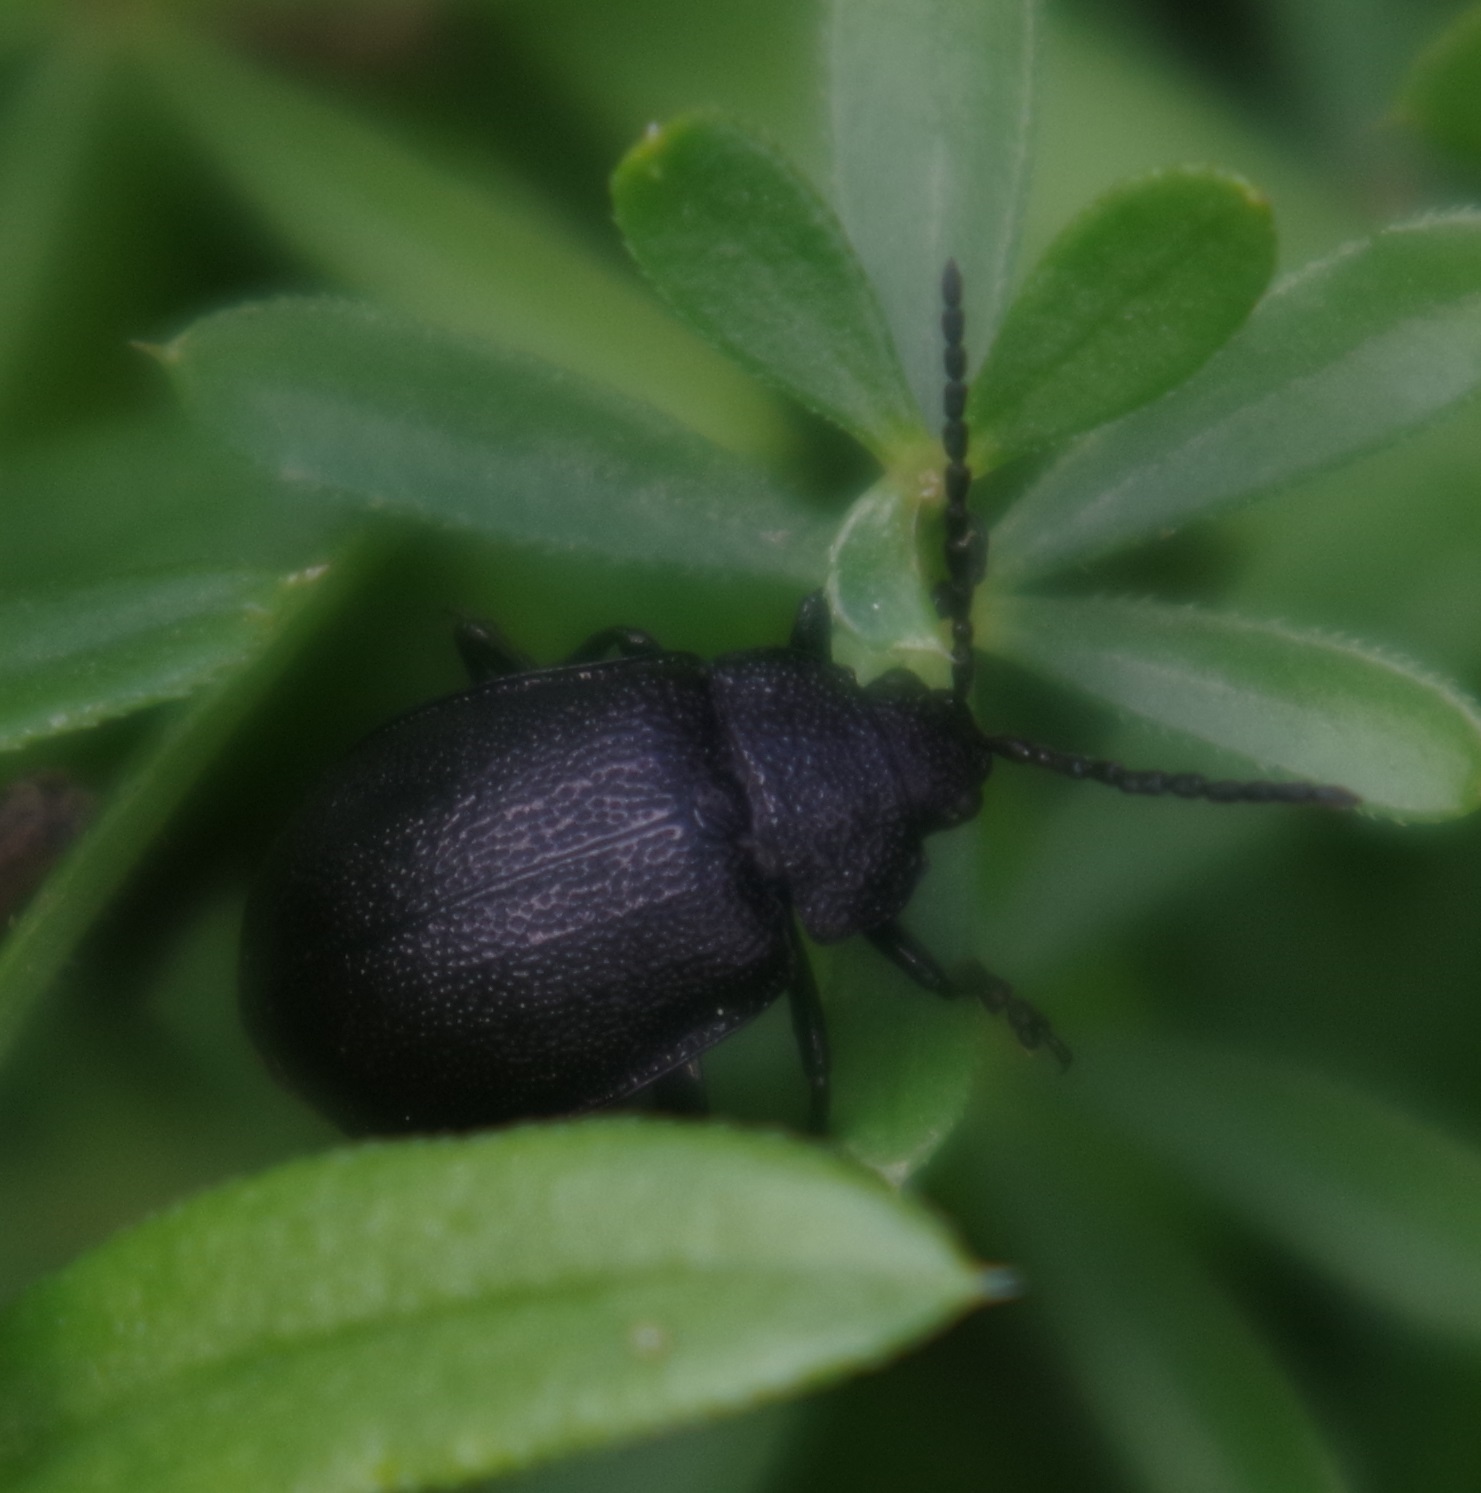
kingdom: Animalia
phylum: Arthropoda
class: Insecta
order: Coleoptera
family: Chrysomelidae
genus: Galeruca
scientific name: Galeruca tanaceti
